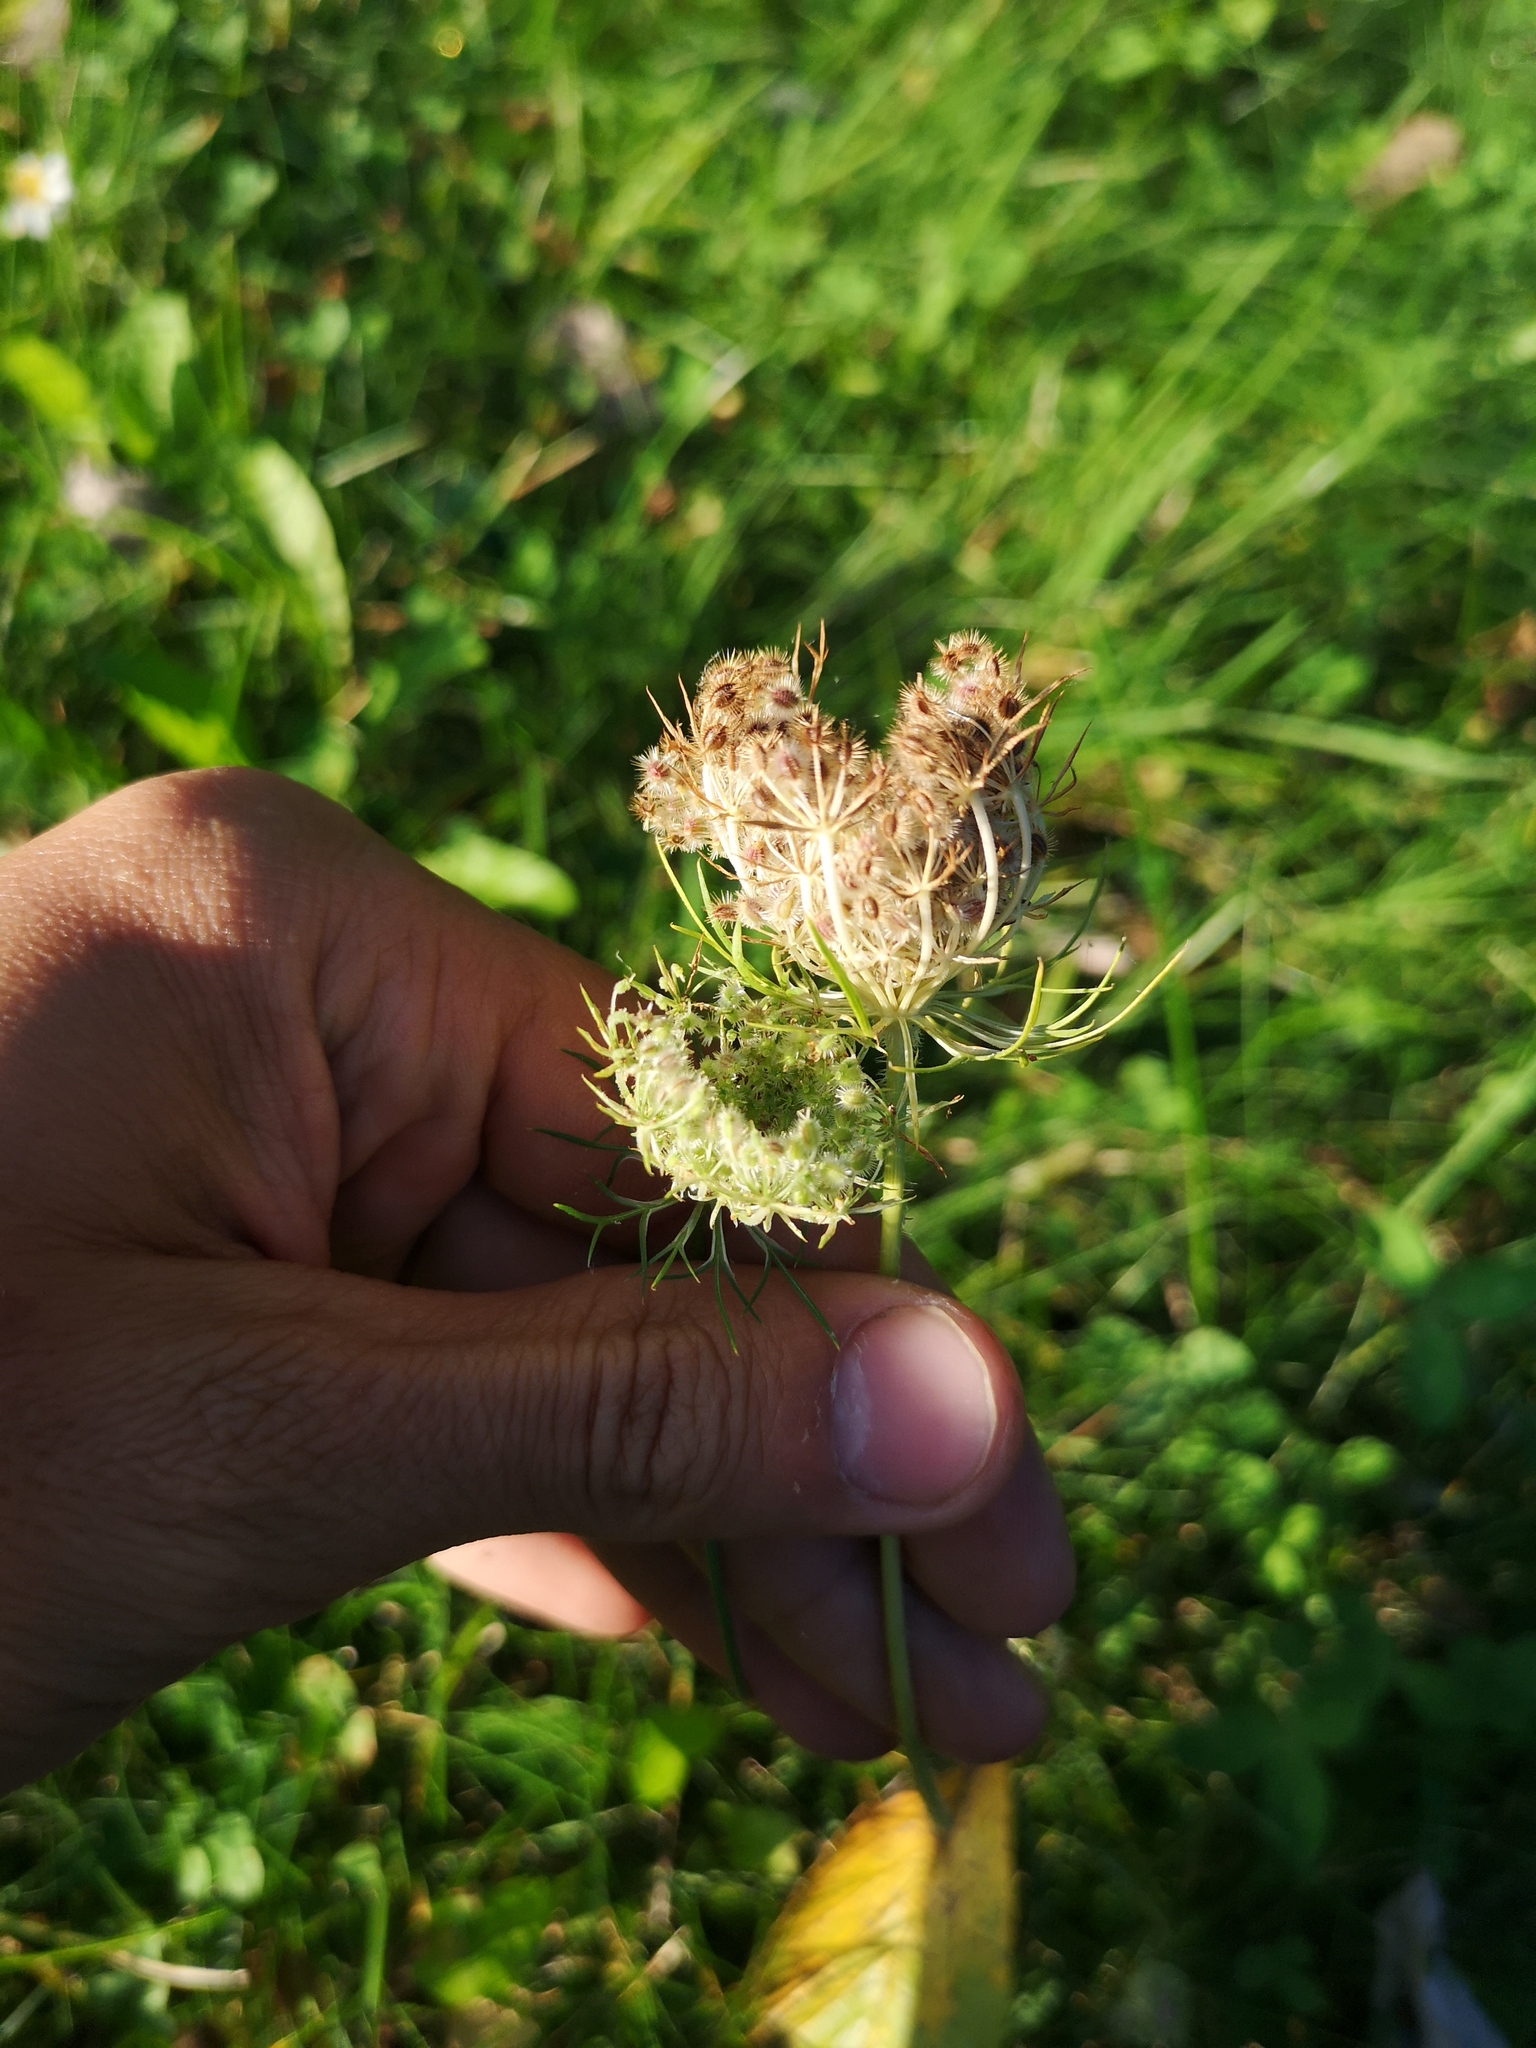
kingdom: Plantae
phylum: Tracheophyta
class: Magnoliopsida
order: Apiales
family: Apiaceae
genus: Daucus
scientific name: Daucus carota
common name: Wild carrot
